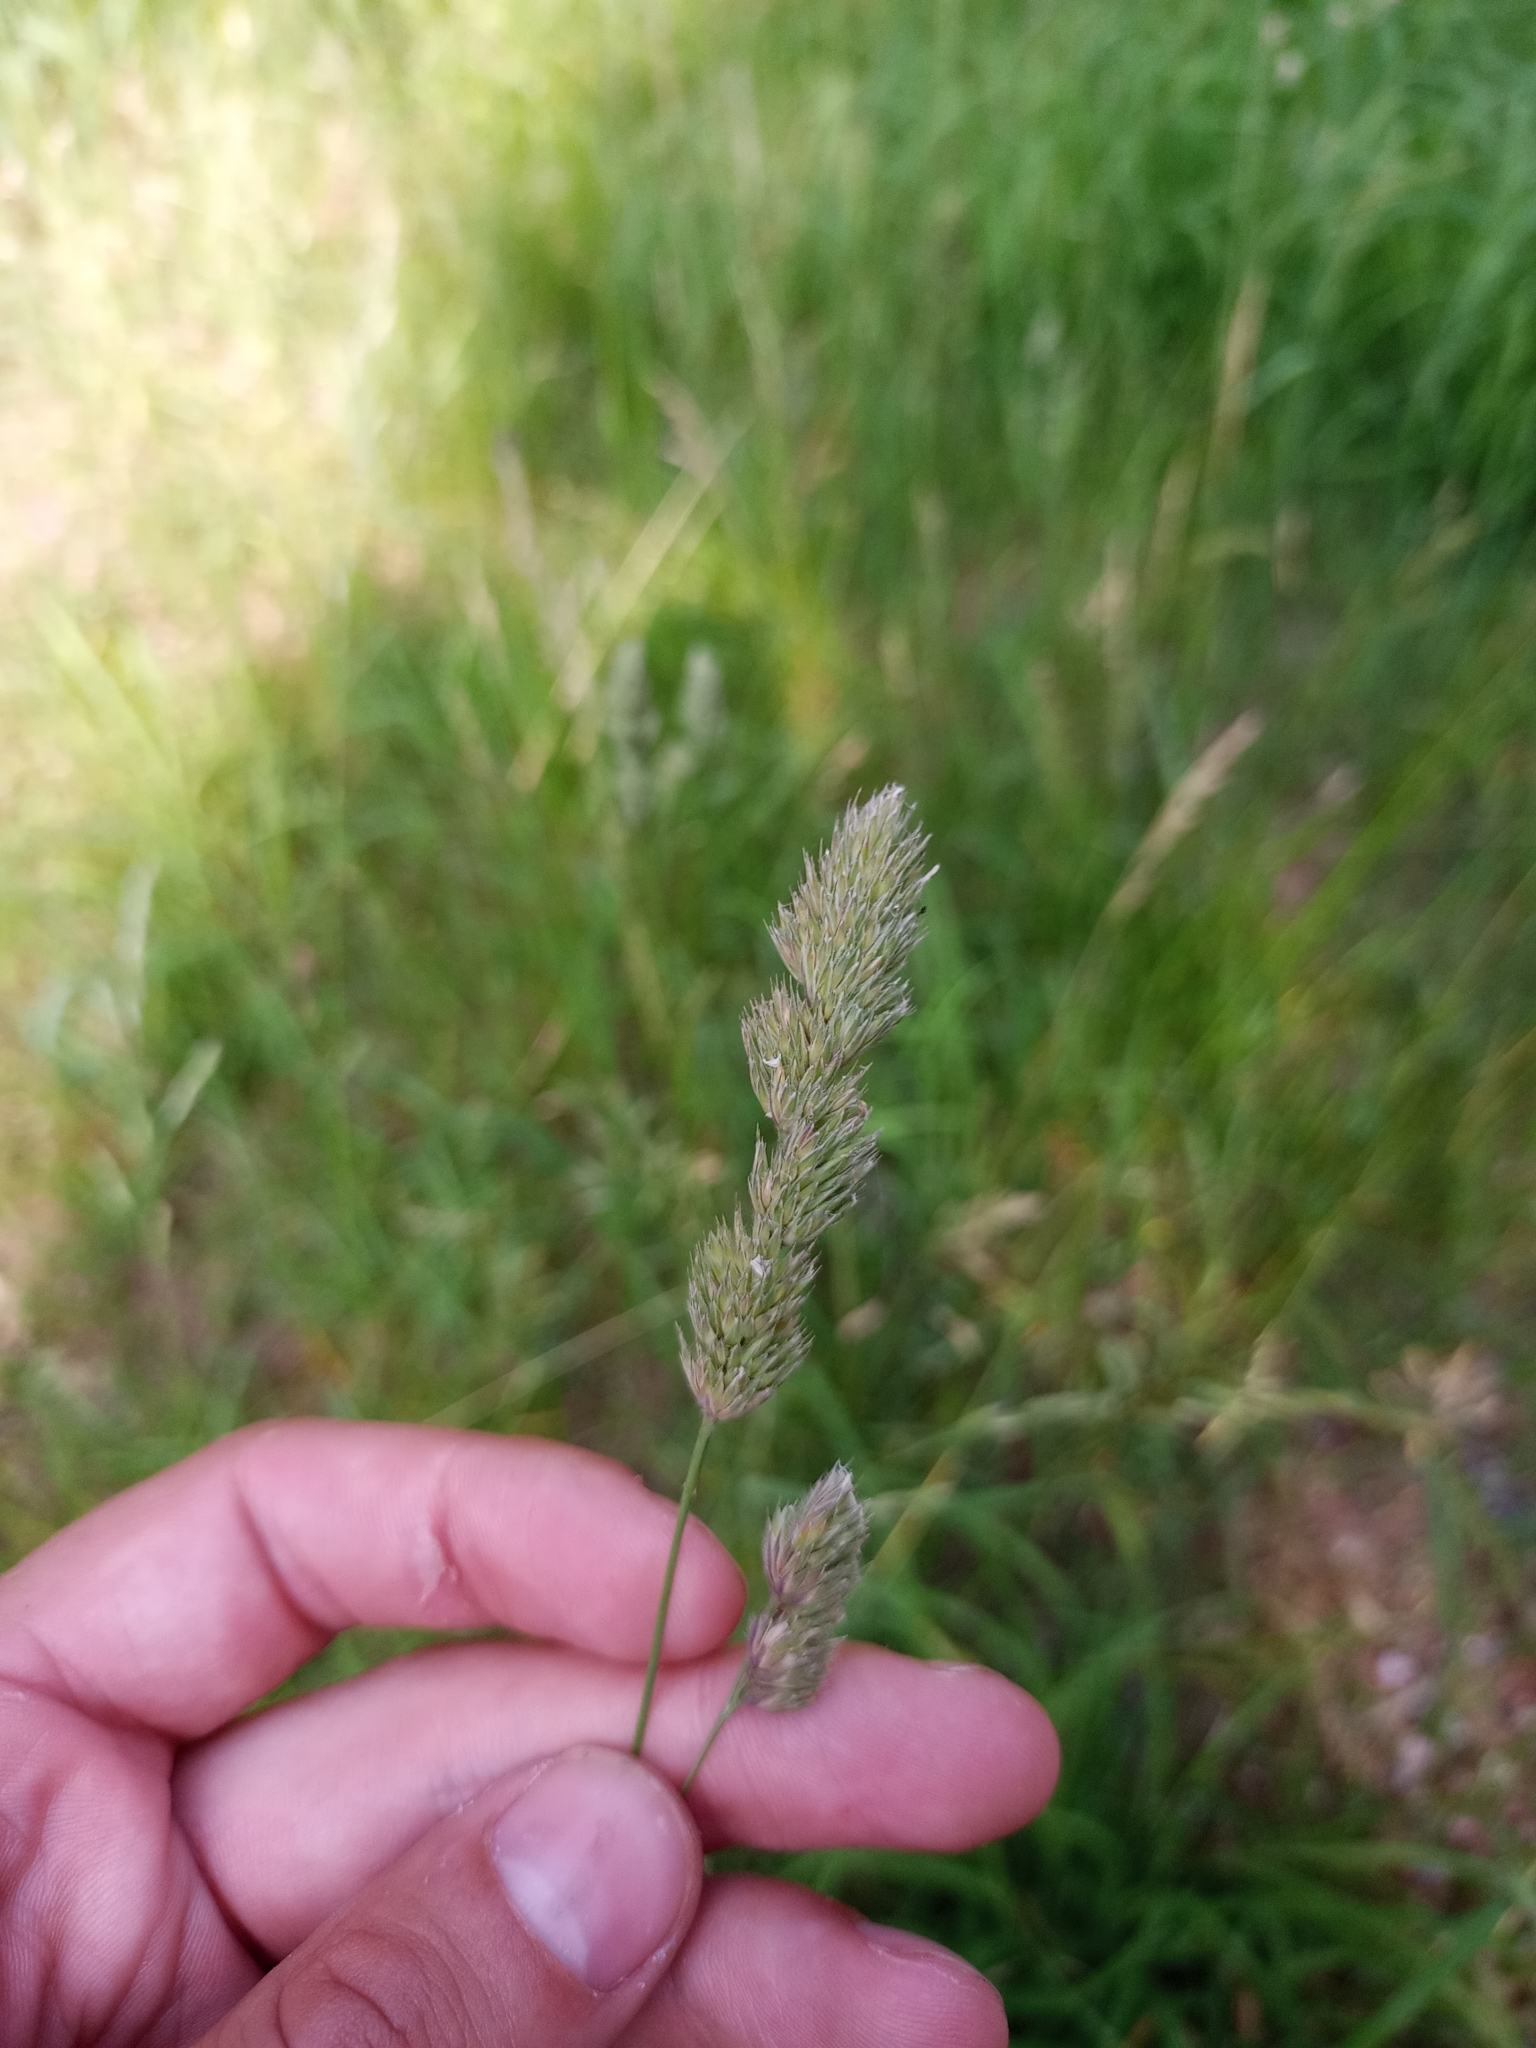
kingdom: Plantae
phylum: Tracheophyta
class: Liliopsida
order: Poales
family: Poaceae
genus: Dactylis
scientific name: Dactylis glomerata
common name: Orchardgrass
